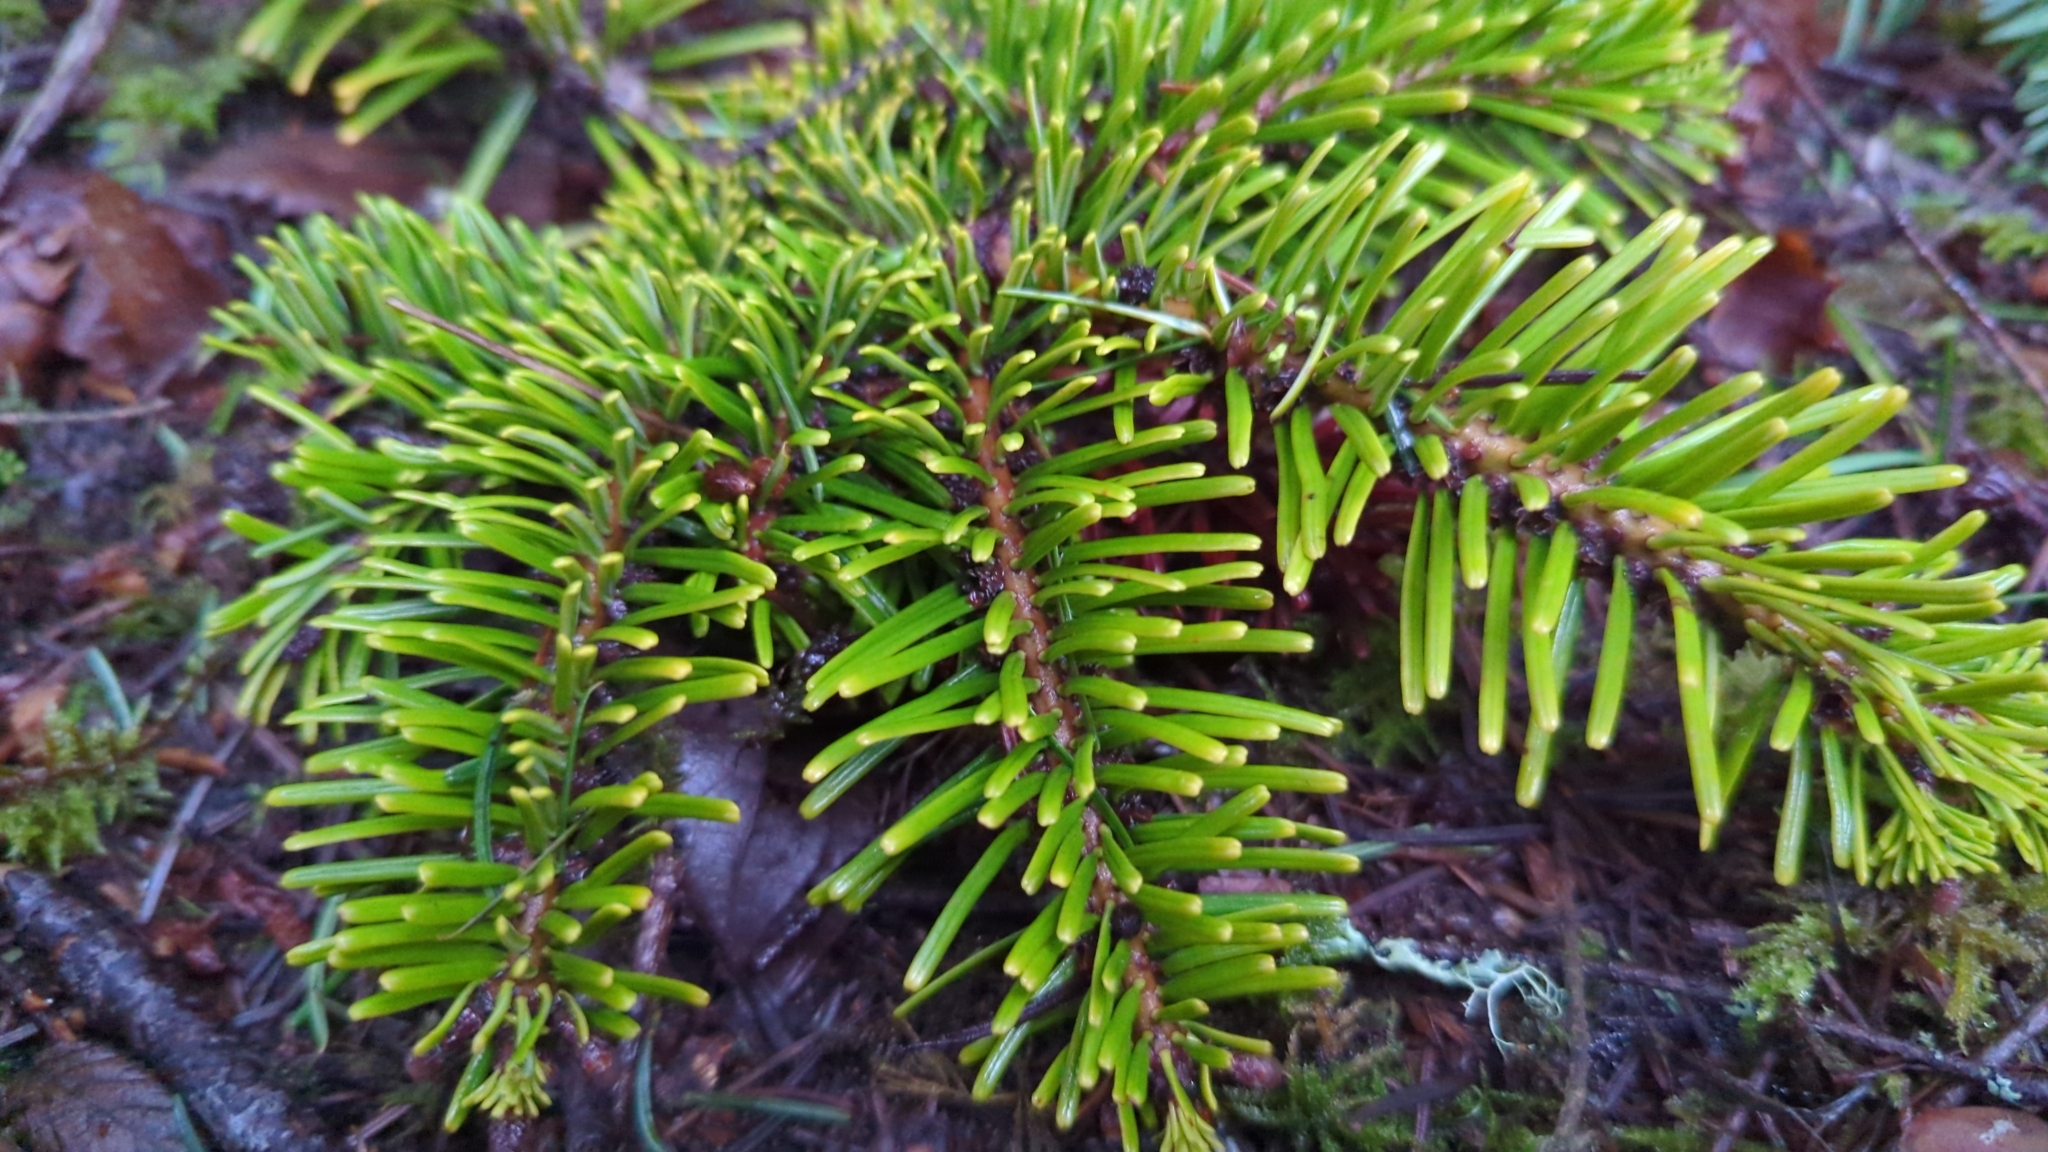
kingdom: Plantae
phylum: Tracheophyta
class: Pinopsida
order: Pinales
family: Pinaceae
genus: Abies
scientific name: Abies amabilis
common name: Pacific silver fir
